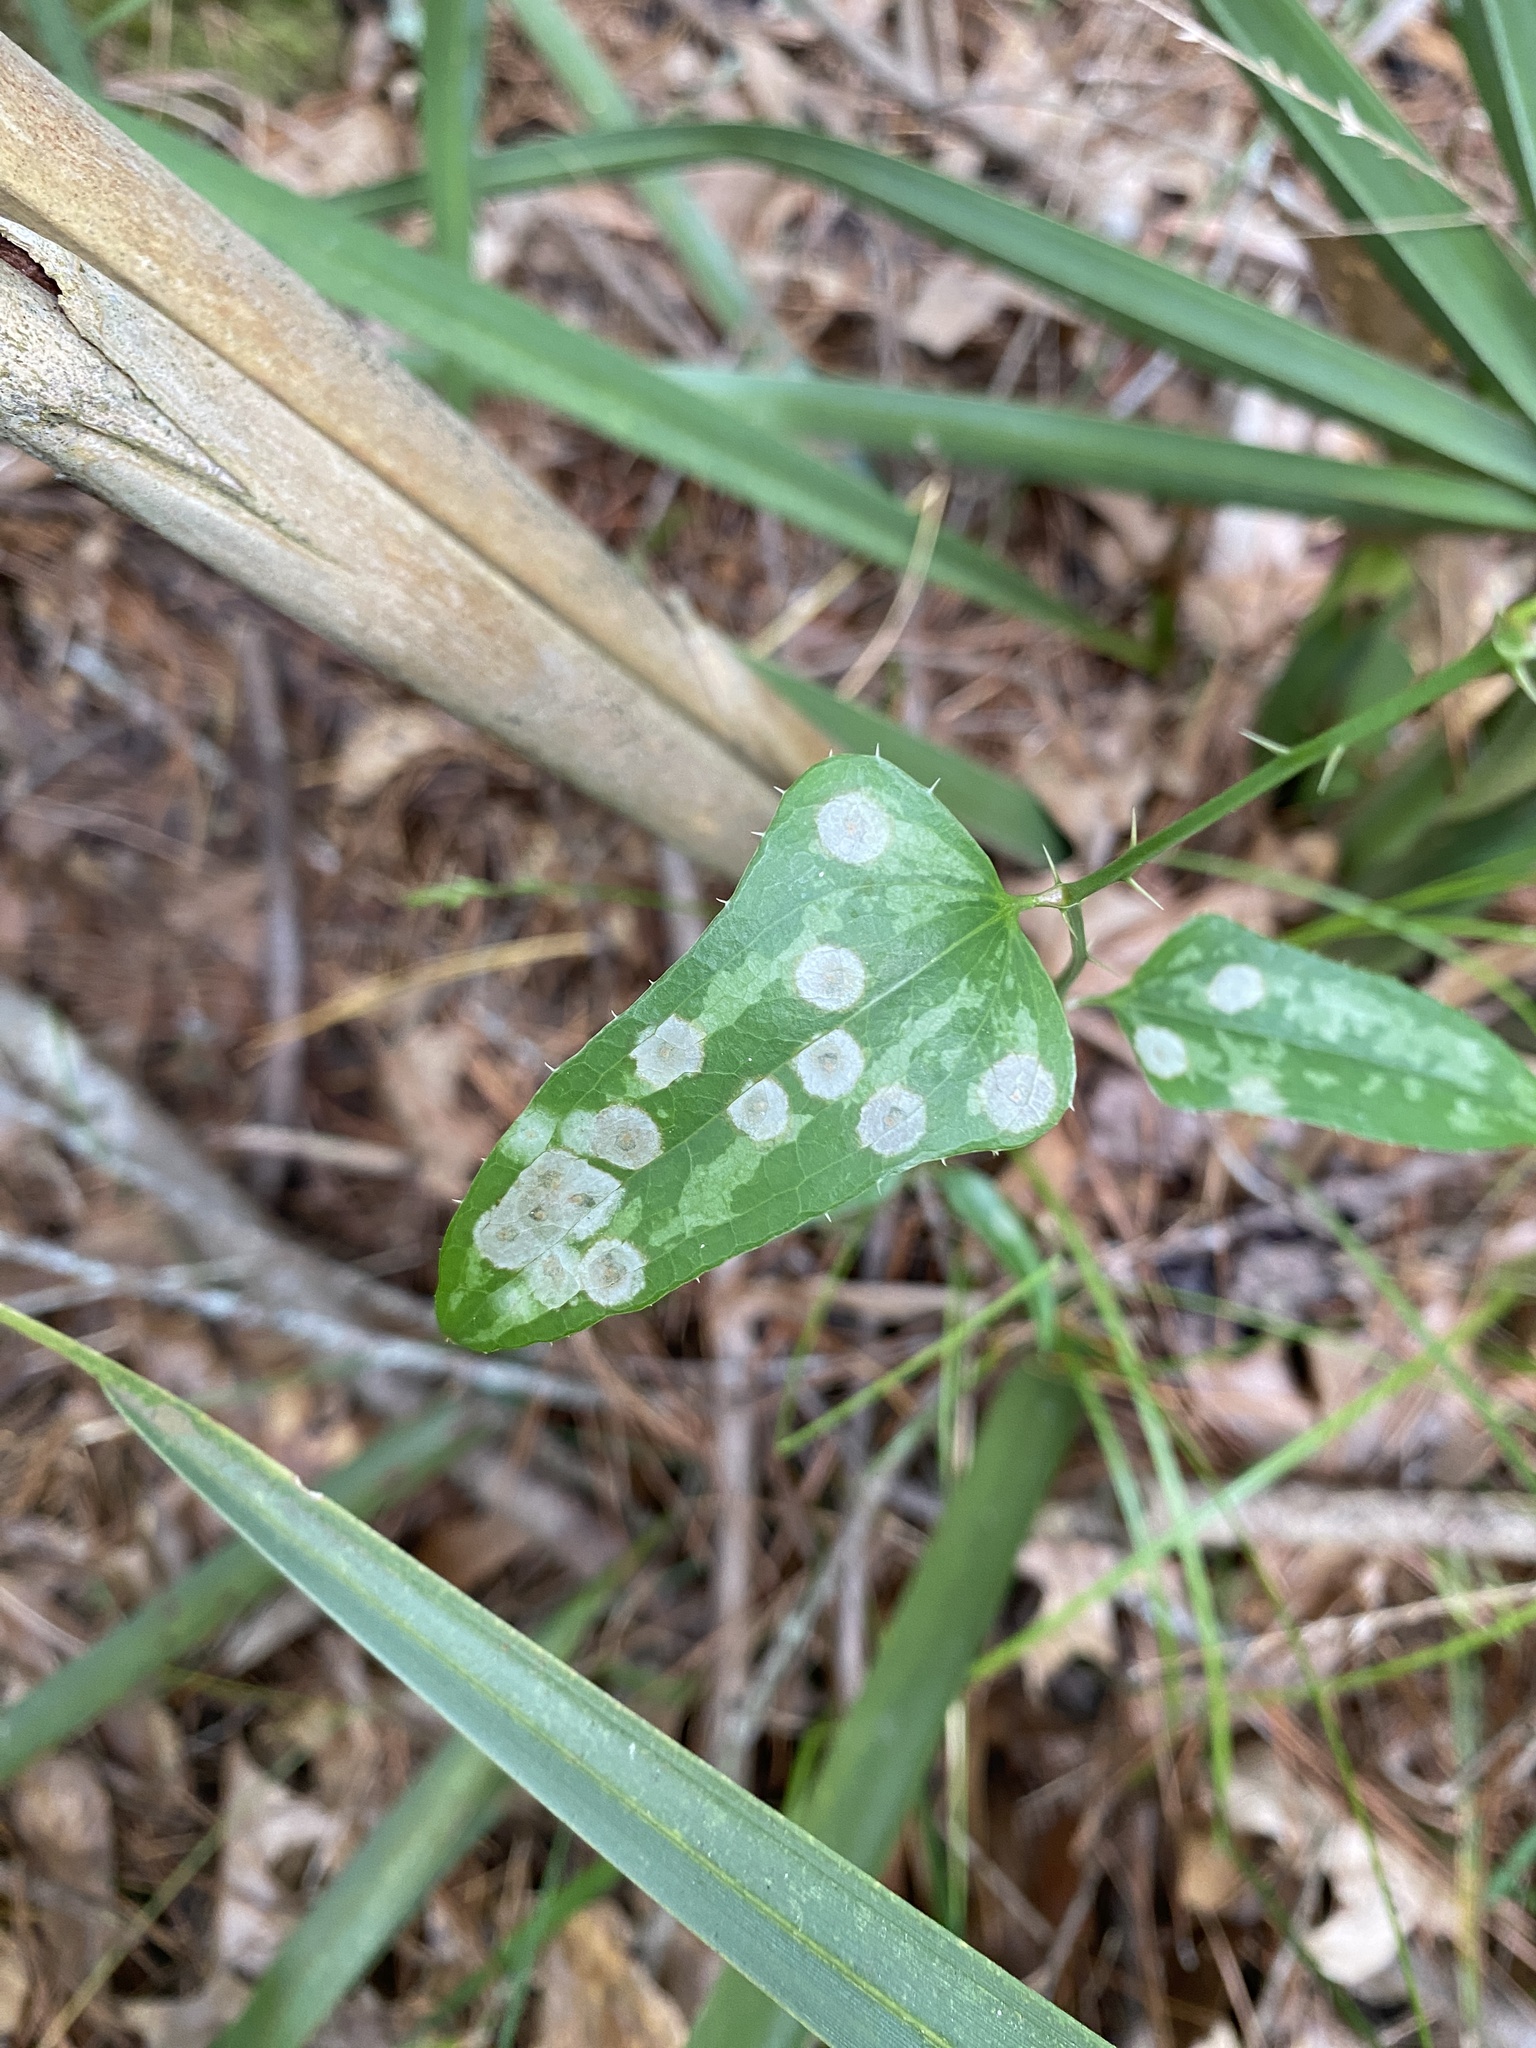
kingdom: Animalia
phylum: Arthropoda
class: Insecta
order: Diptera
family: Cecidomyiidae
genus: Meunieriella
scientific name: Meunieriella
